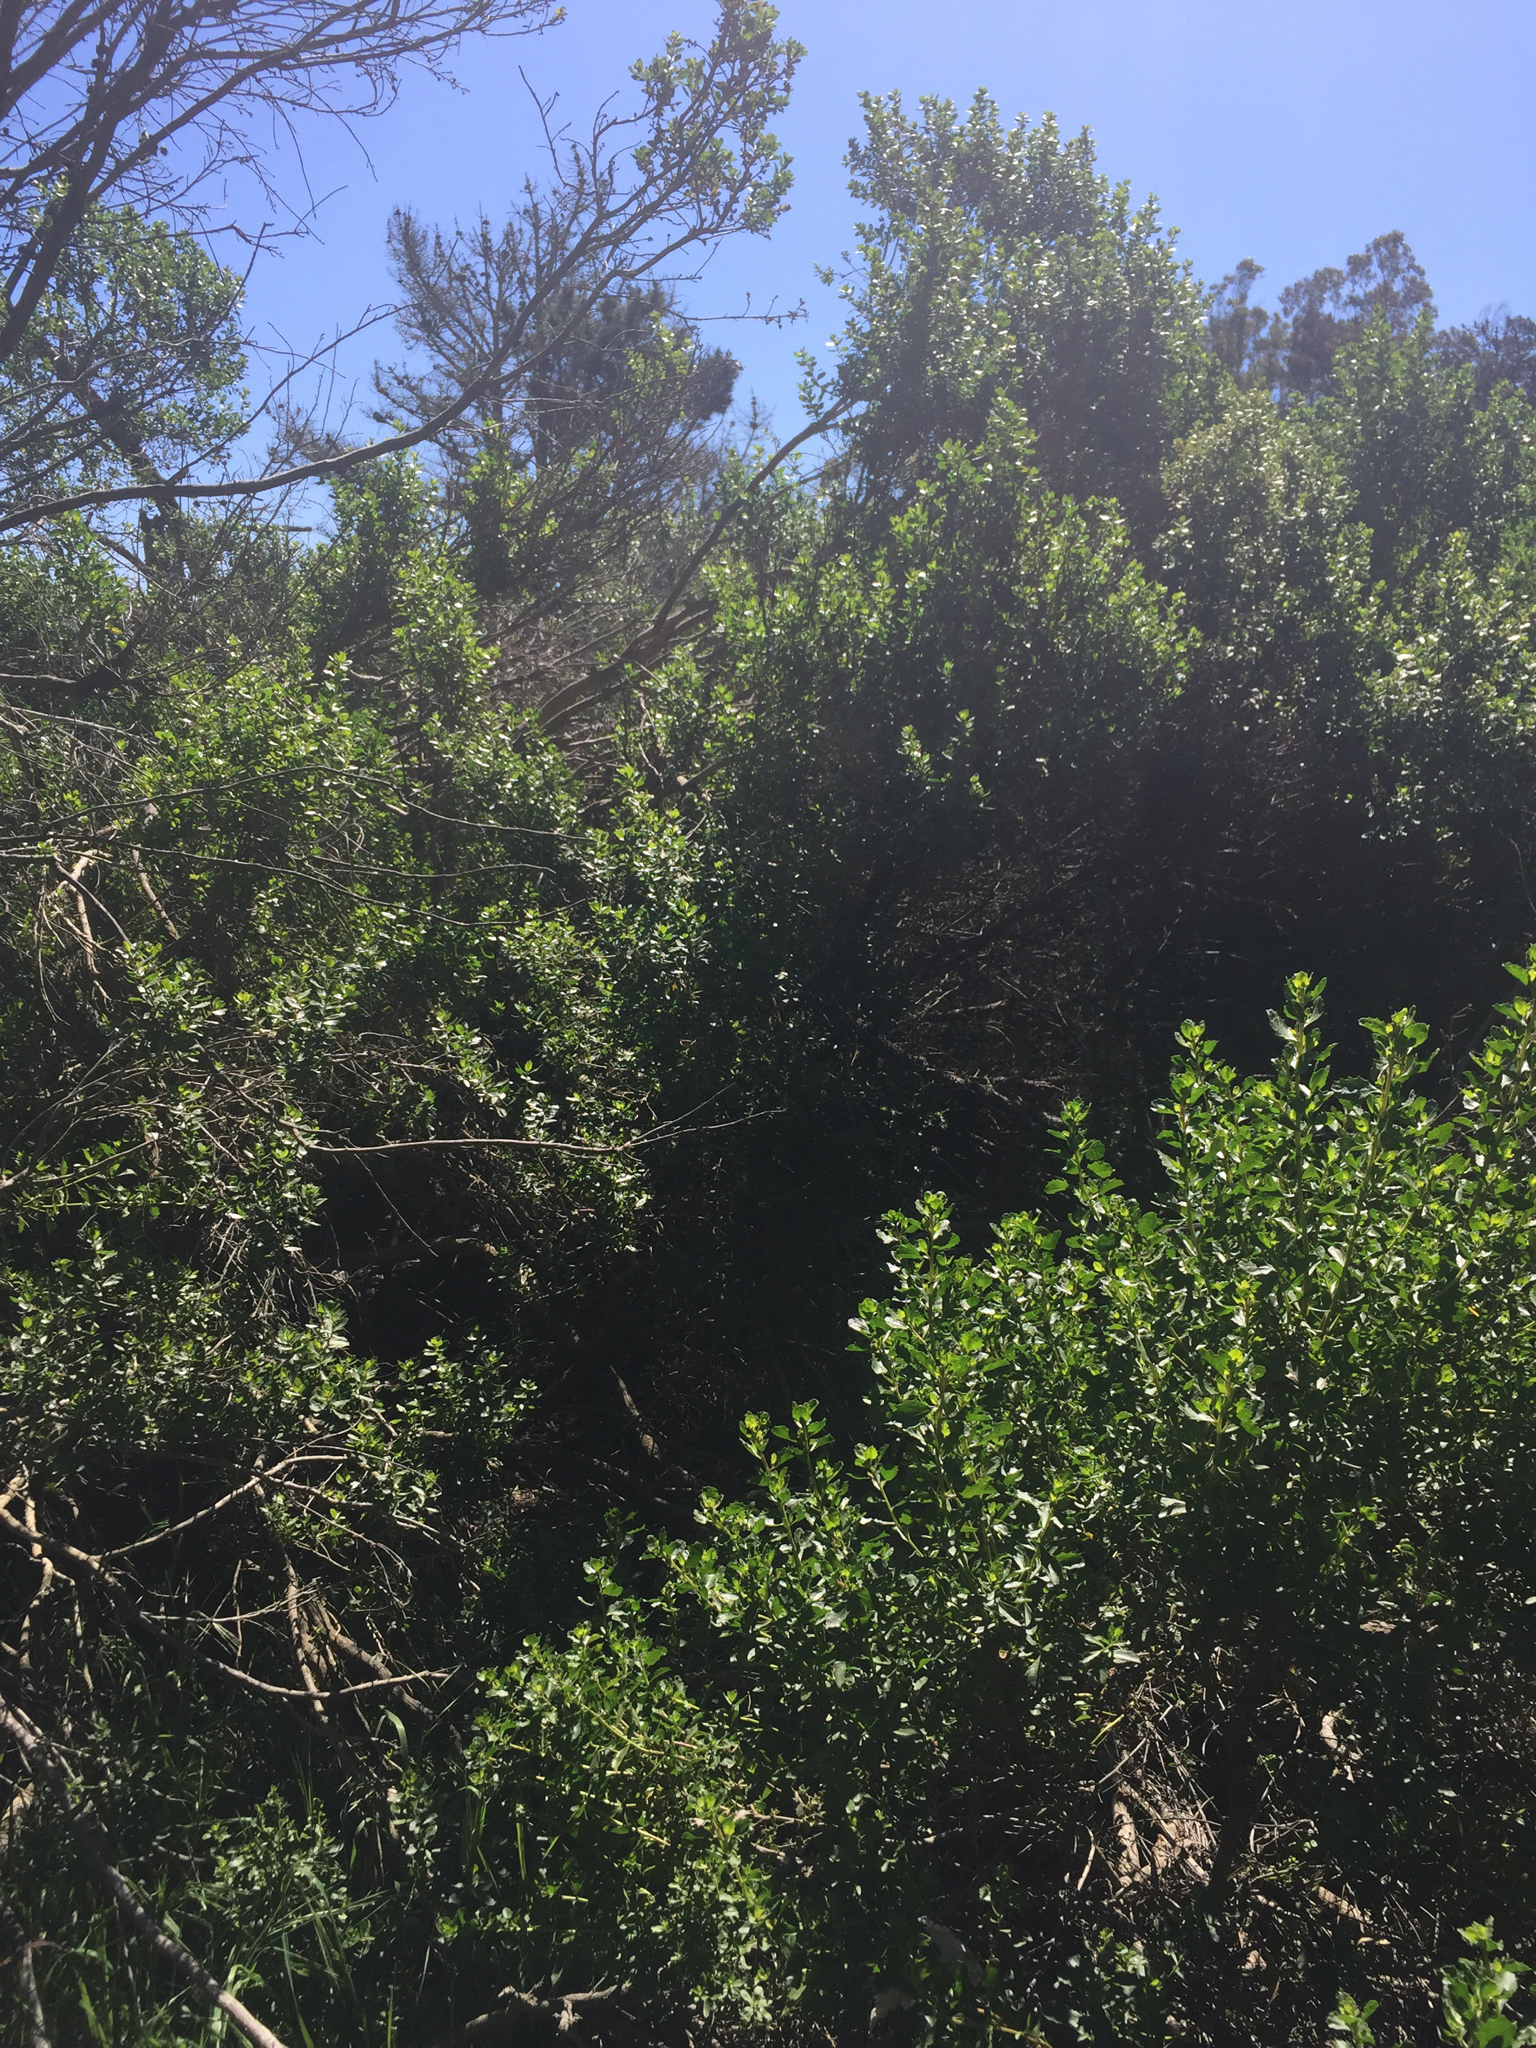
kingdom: Plantae
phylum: Tracheophyta
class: Magnoliopsida
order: Asterales
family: Asteraceae
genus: Baccharis
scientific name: Baccharis pilularis
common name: Coyotebrush
